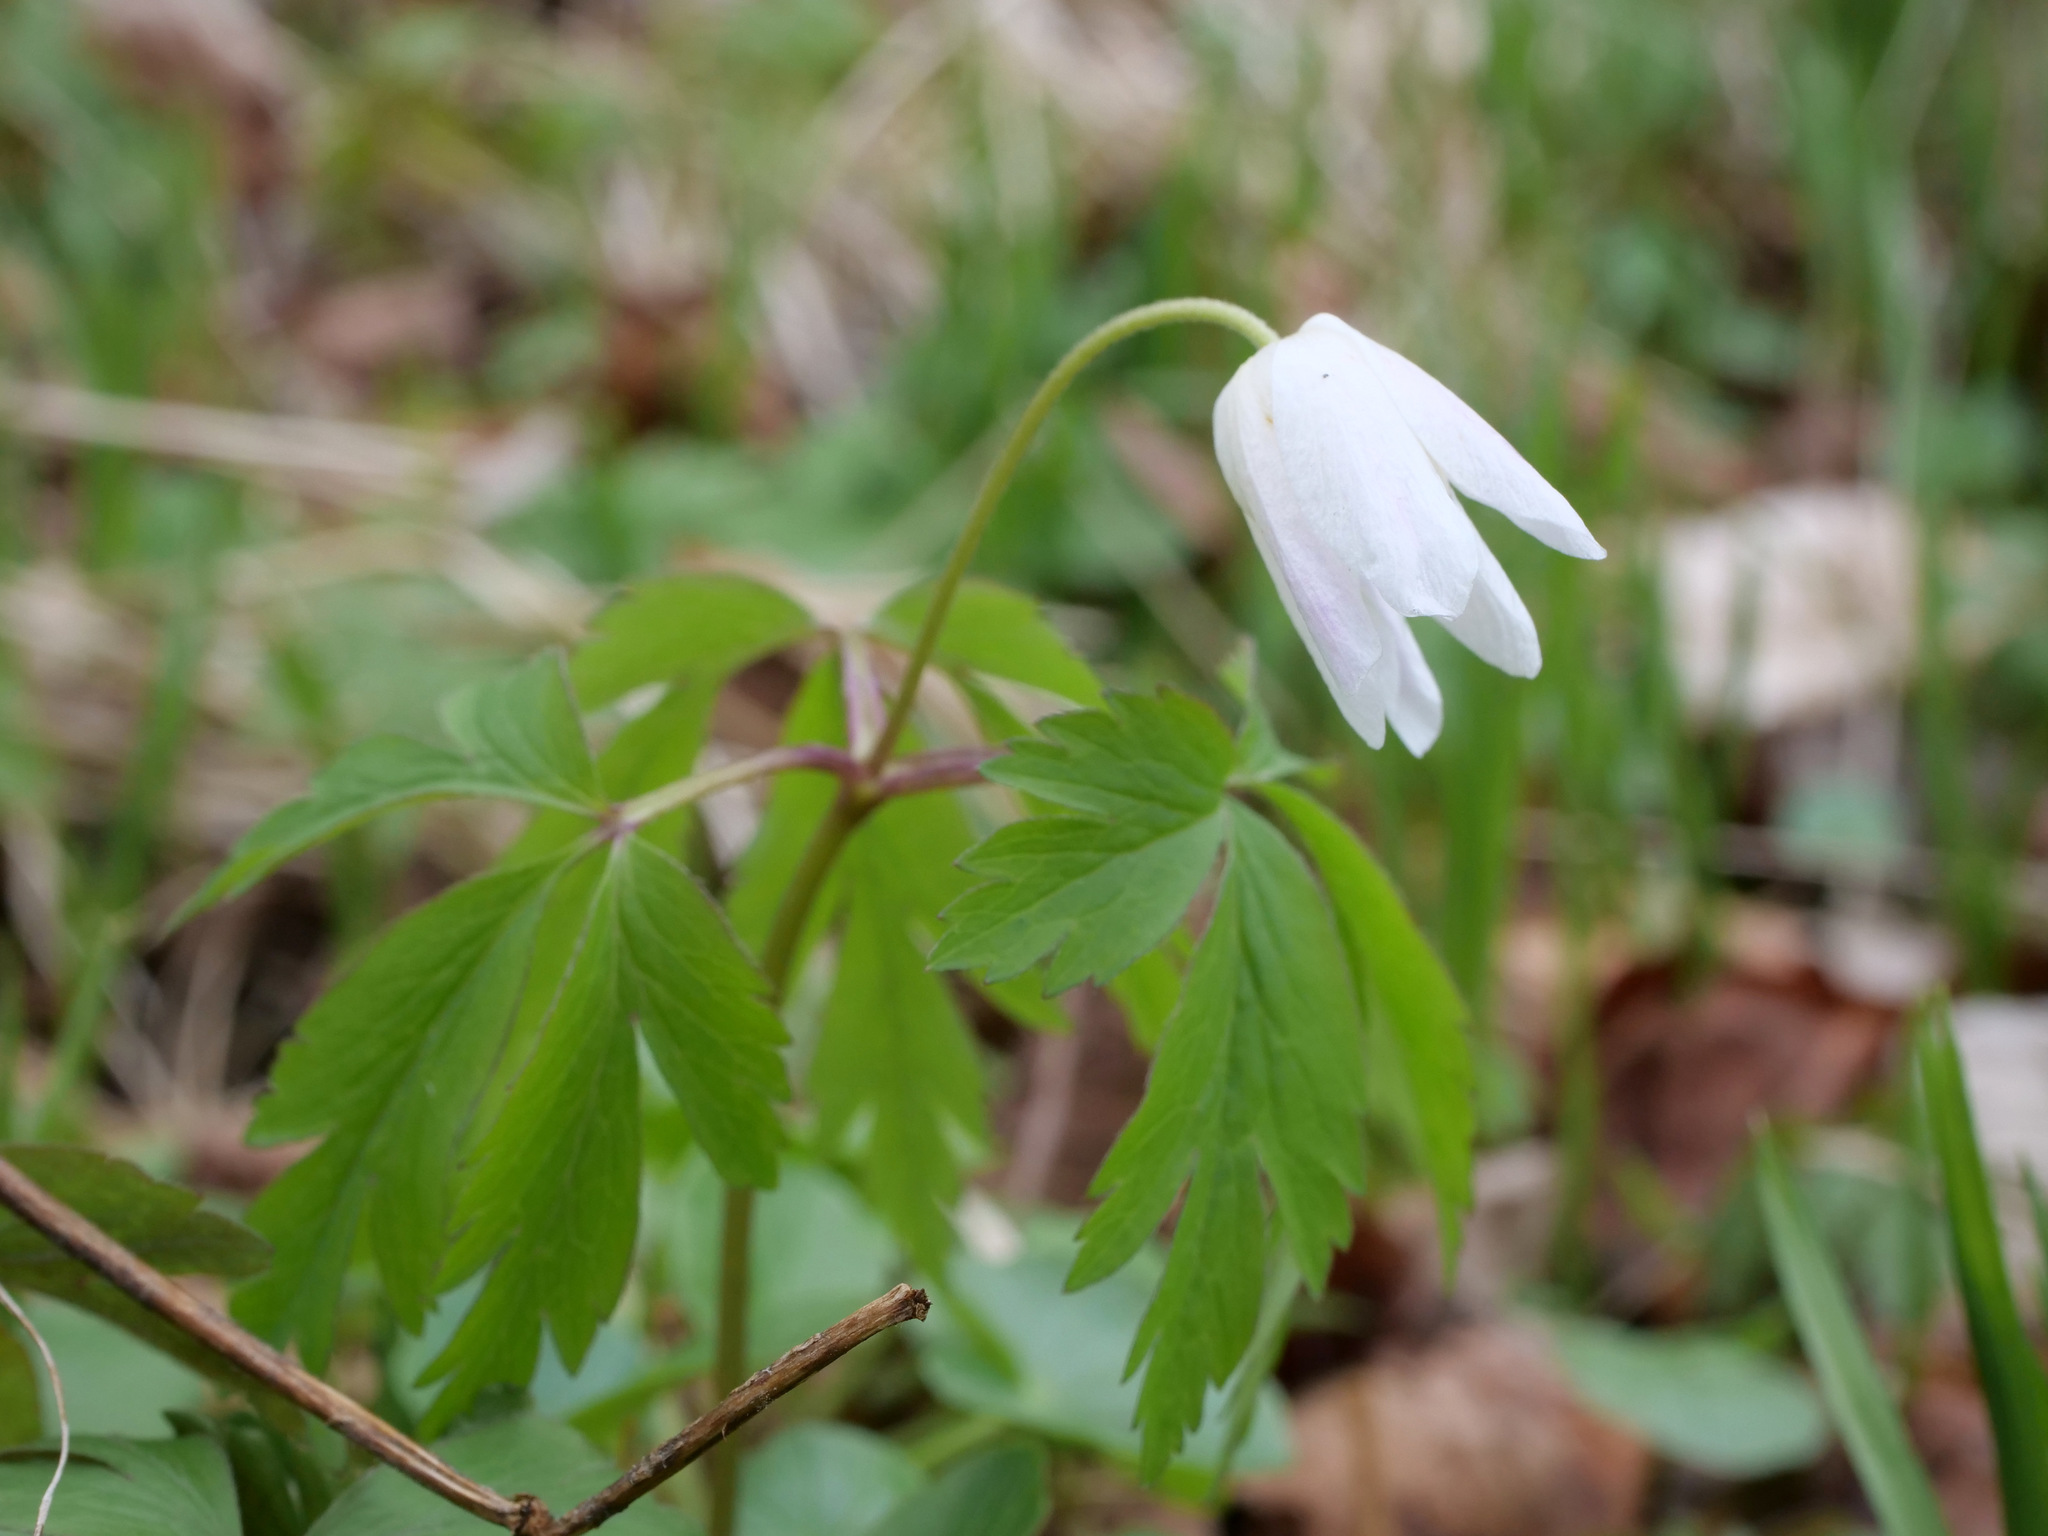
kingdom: Plantae
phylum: Tracheophyta
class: Magnoliopsida
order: Ranunculales
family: Ranunculaceae
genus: Anemone
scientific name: Anemone nemorosa
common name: Wood anemone
